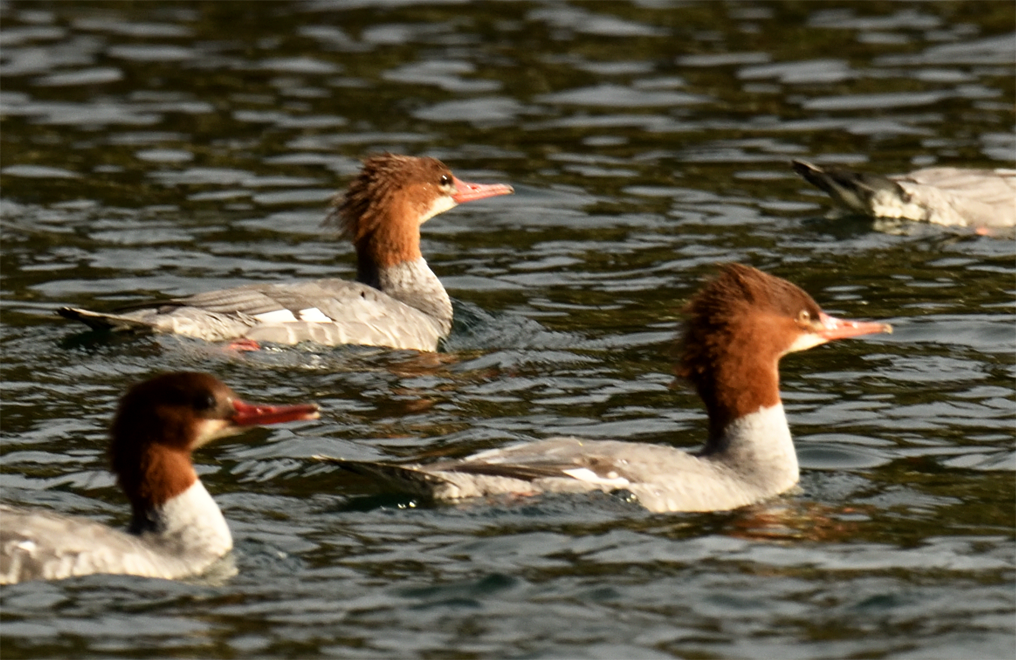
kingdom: Animalia
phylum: Chordata
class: Aves
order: Anseriformes
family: Anatidae
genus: Mergus
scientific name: Mergus merganser
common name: Common merganser
